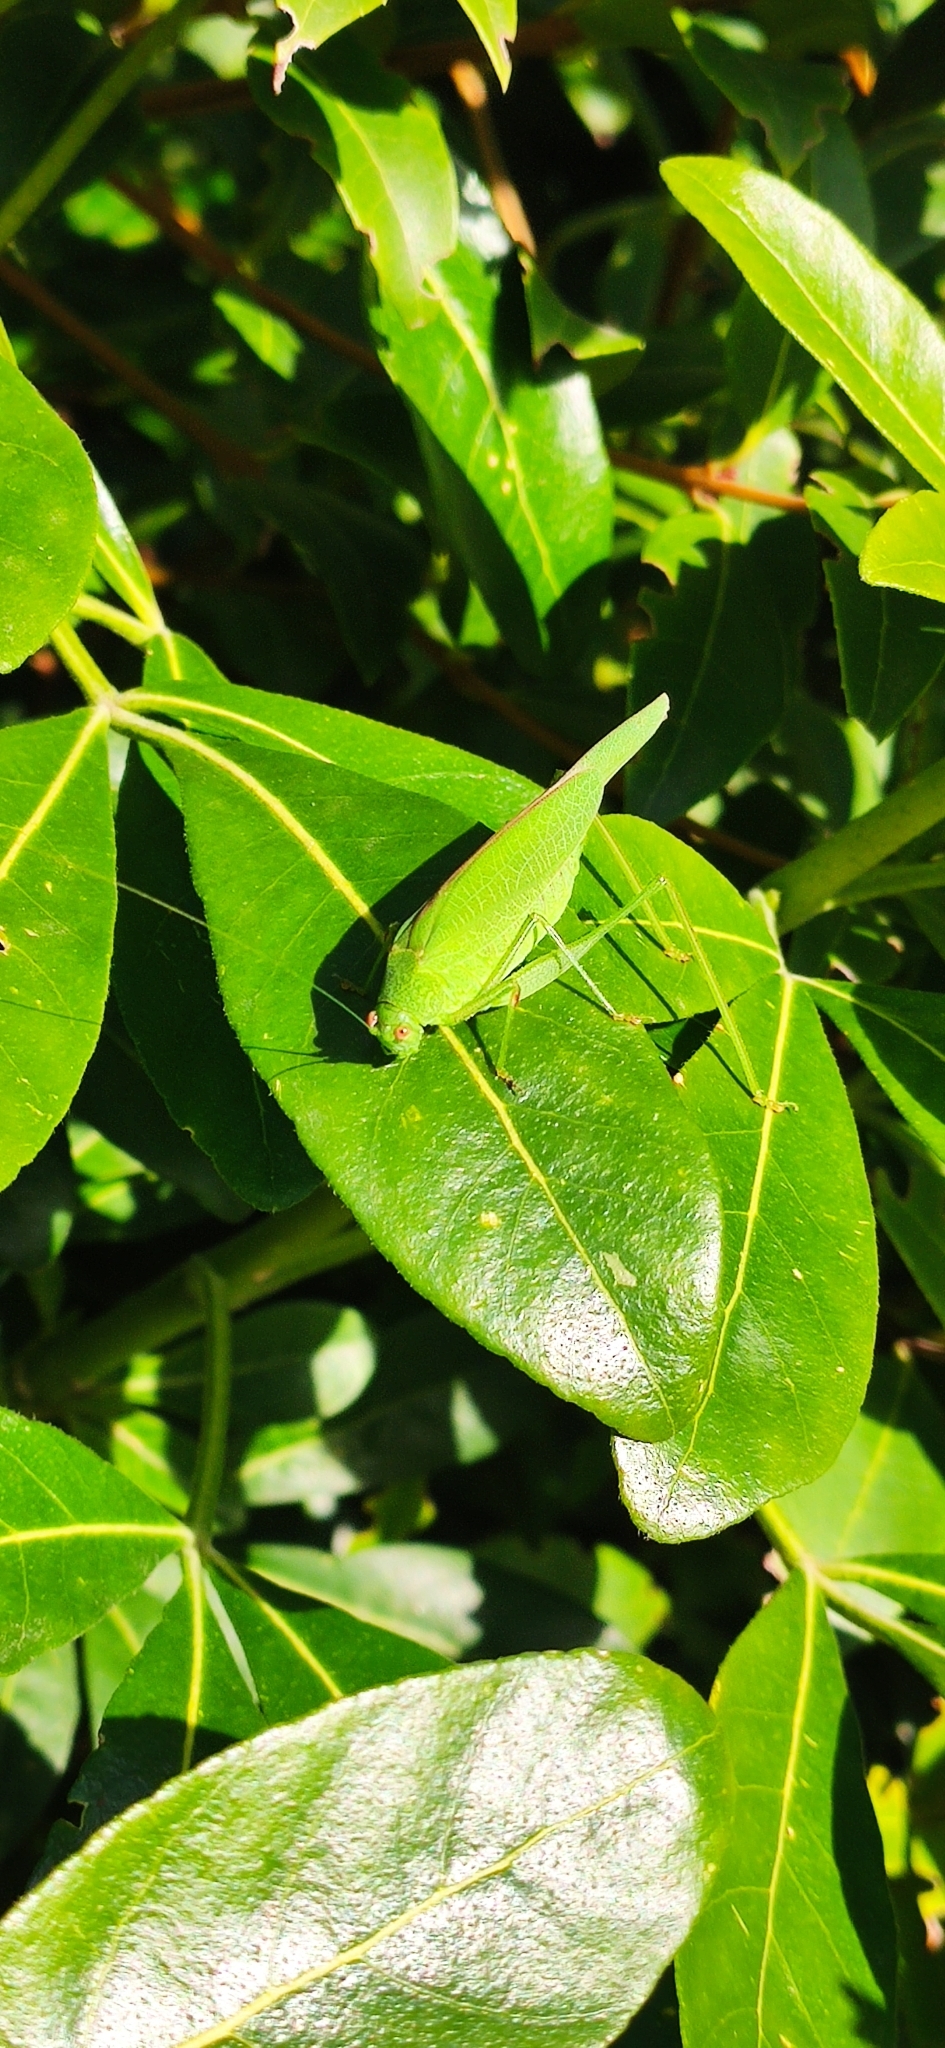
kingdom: Animalia
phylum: Arthropoda
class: Insecta
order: Orthoptera
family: Tettigoniidae
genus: Phaneroptera
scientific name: Phaneroptera nana
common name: Southern sickle bush-cricket
